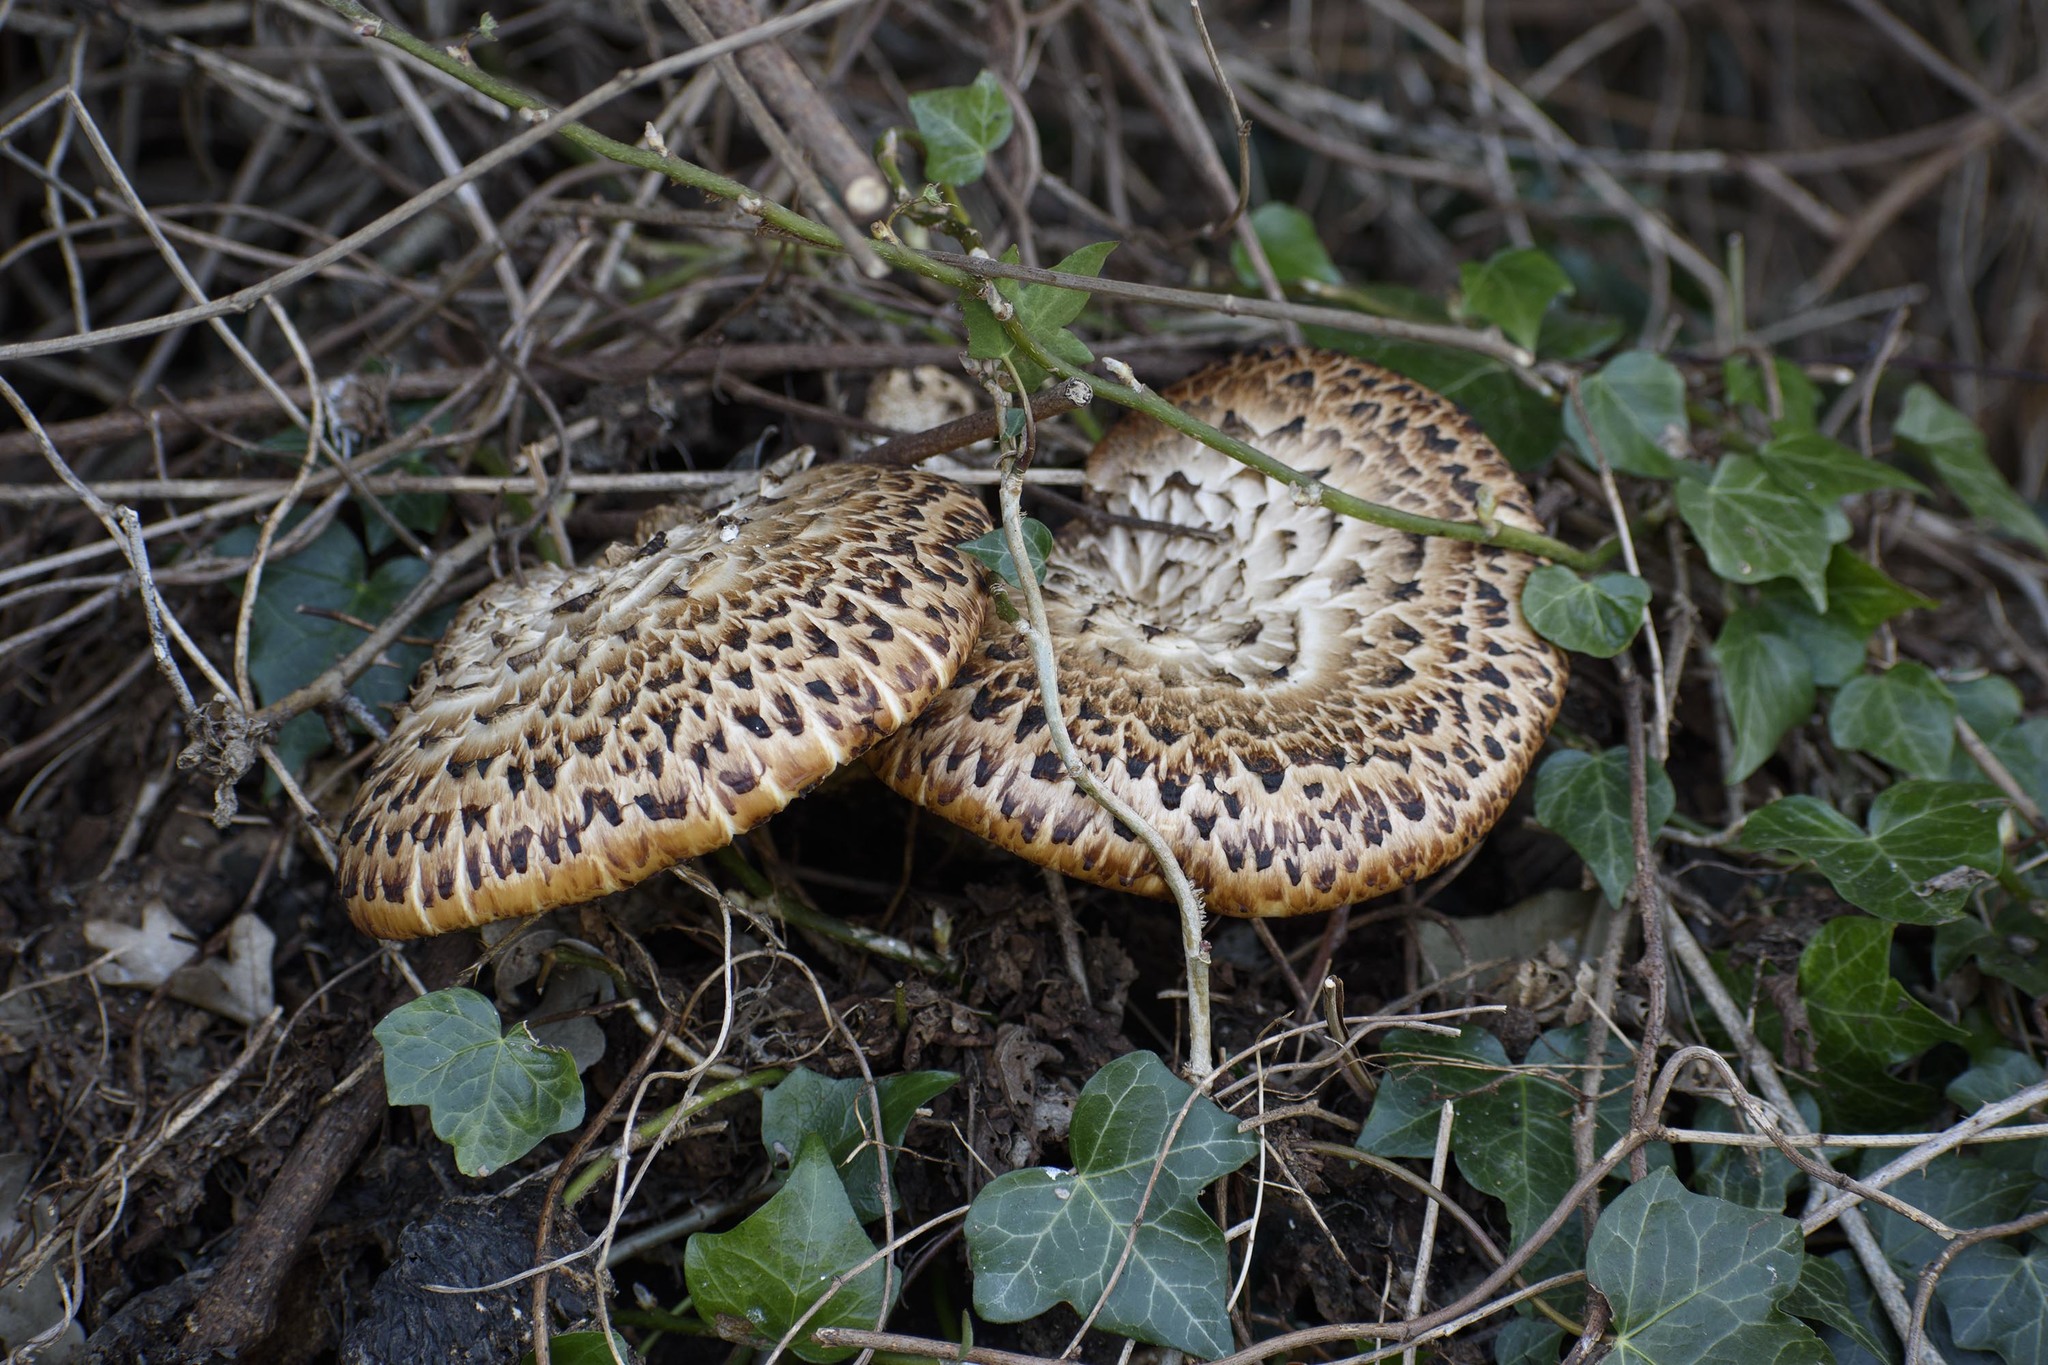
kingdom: Fungi
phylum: Basidiomycota
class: Agaricomycetes
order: Polyporales
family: Polyporaceae
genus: Cerioporus
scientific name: Cerioporus squamosus
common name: Dryad's saddle
